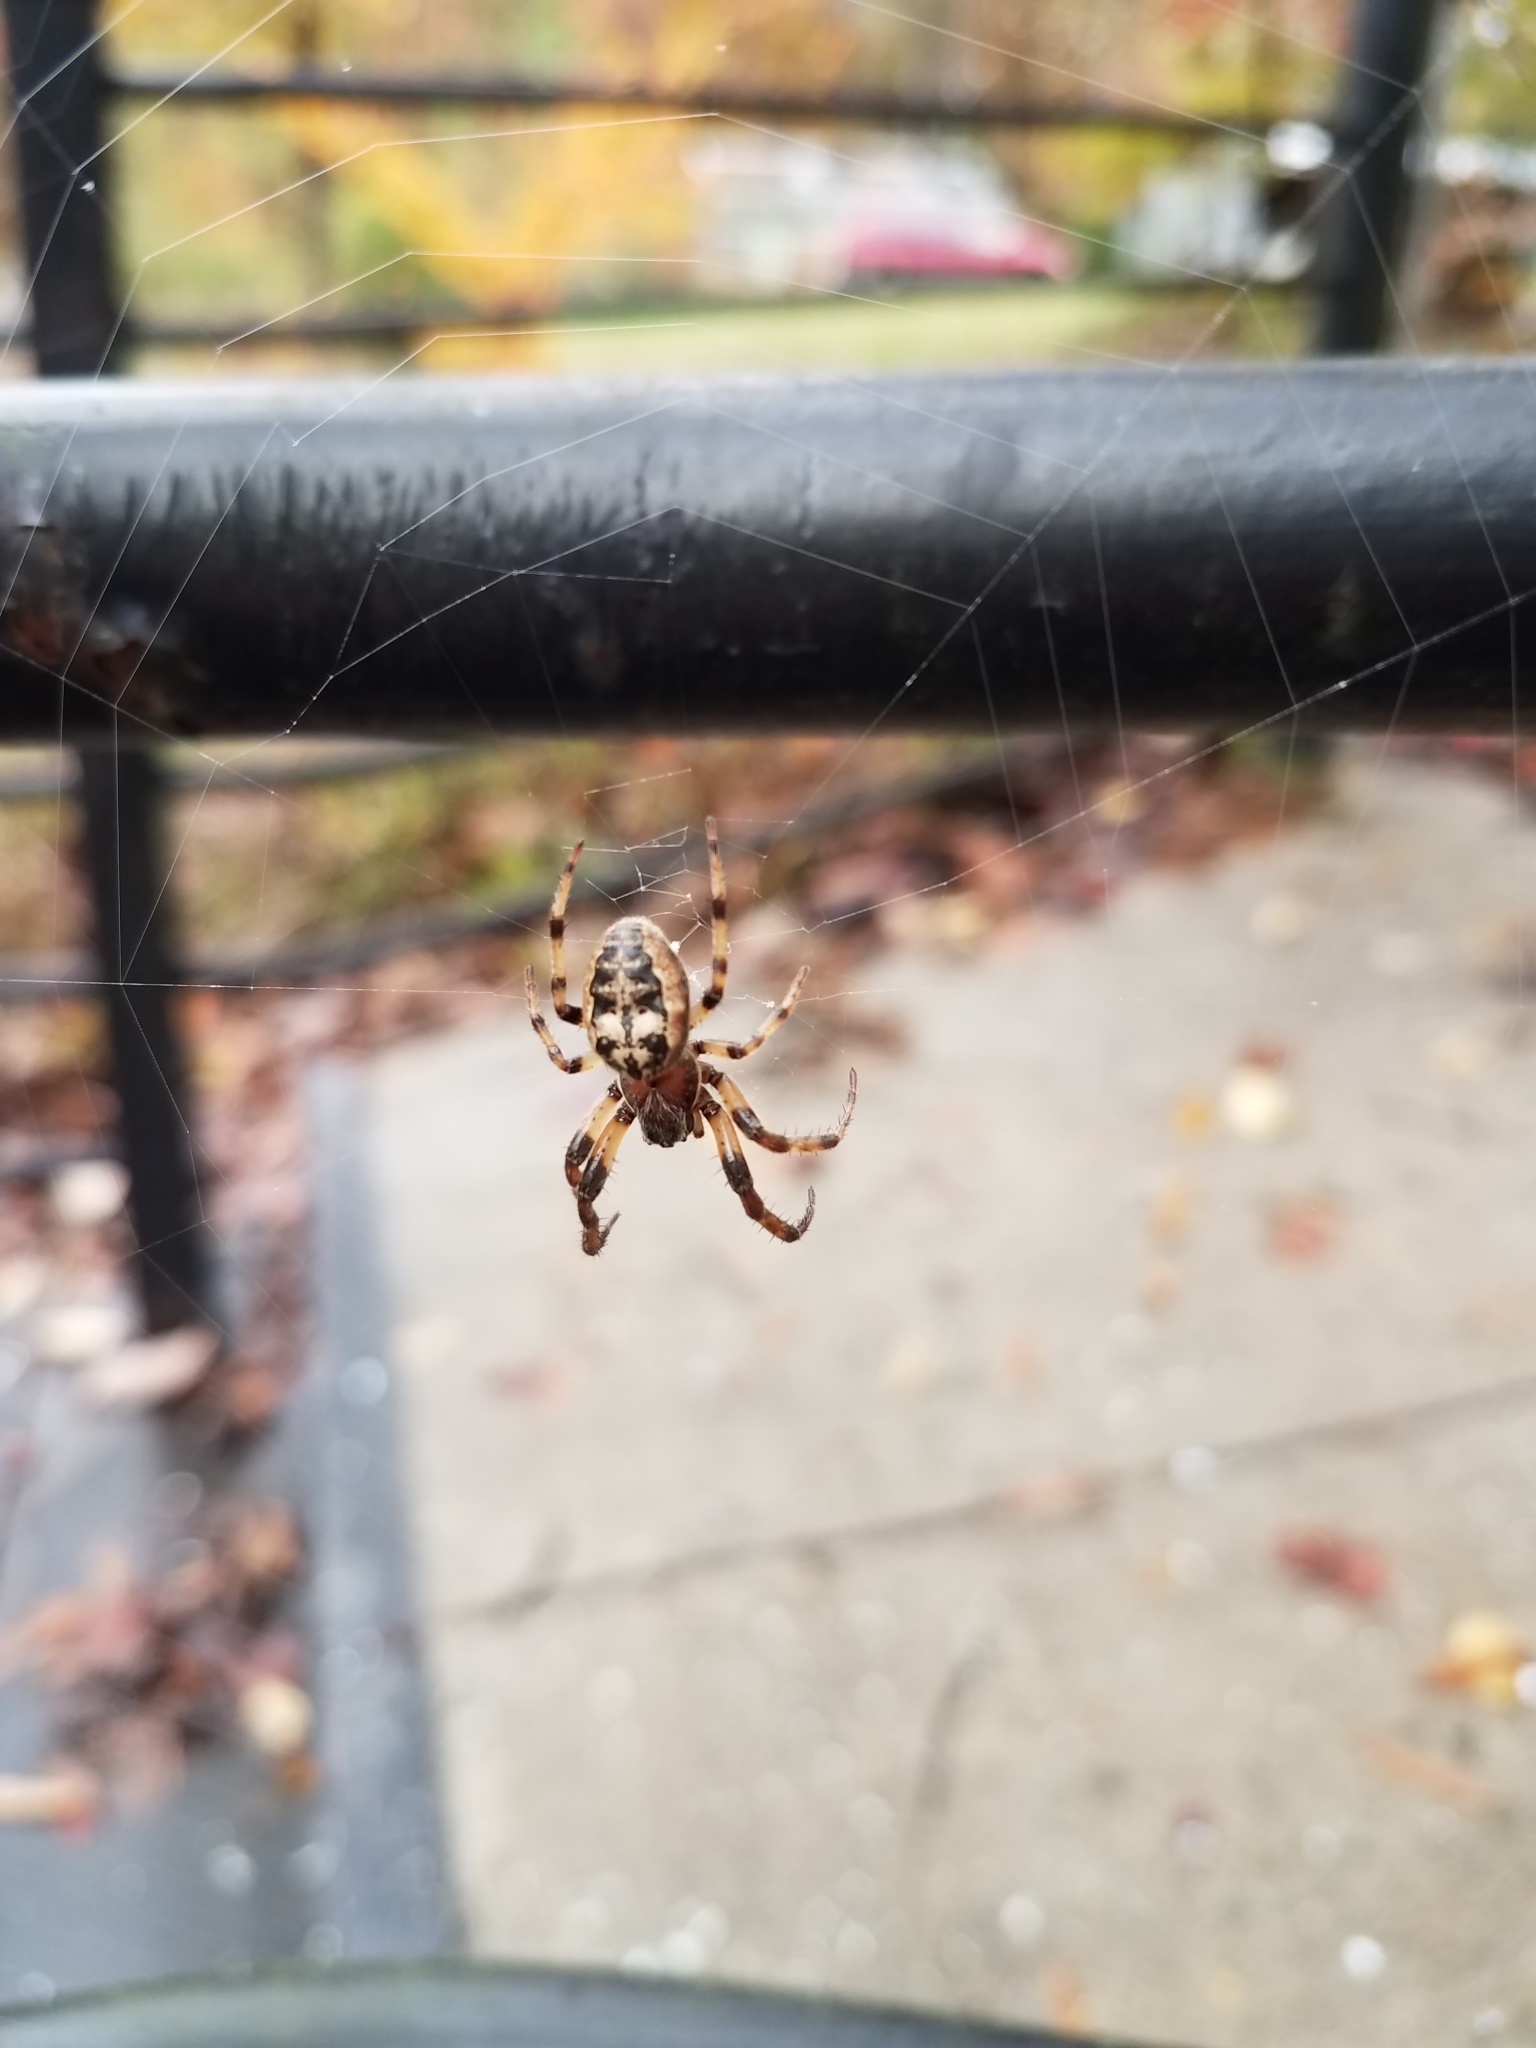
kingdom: Animalia
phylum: Arthropoda
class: Arachnida
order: Araneae
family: Araneidae
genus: Larinioides
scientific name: Larinioides cornutus
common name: Furrow orbweaver
